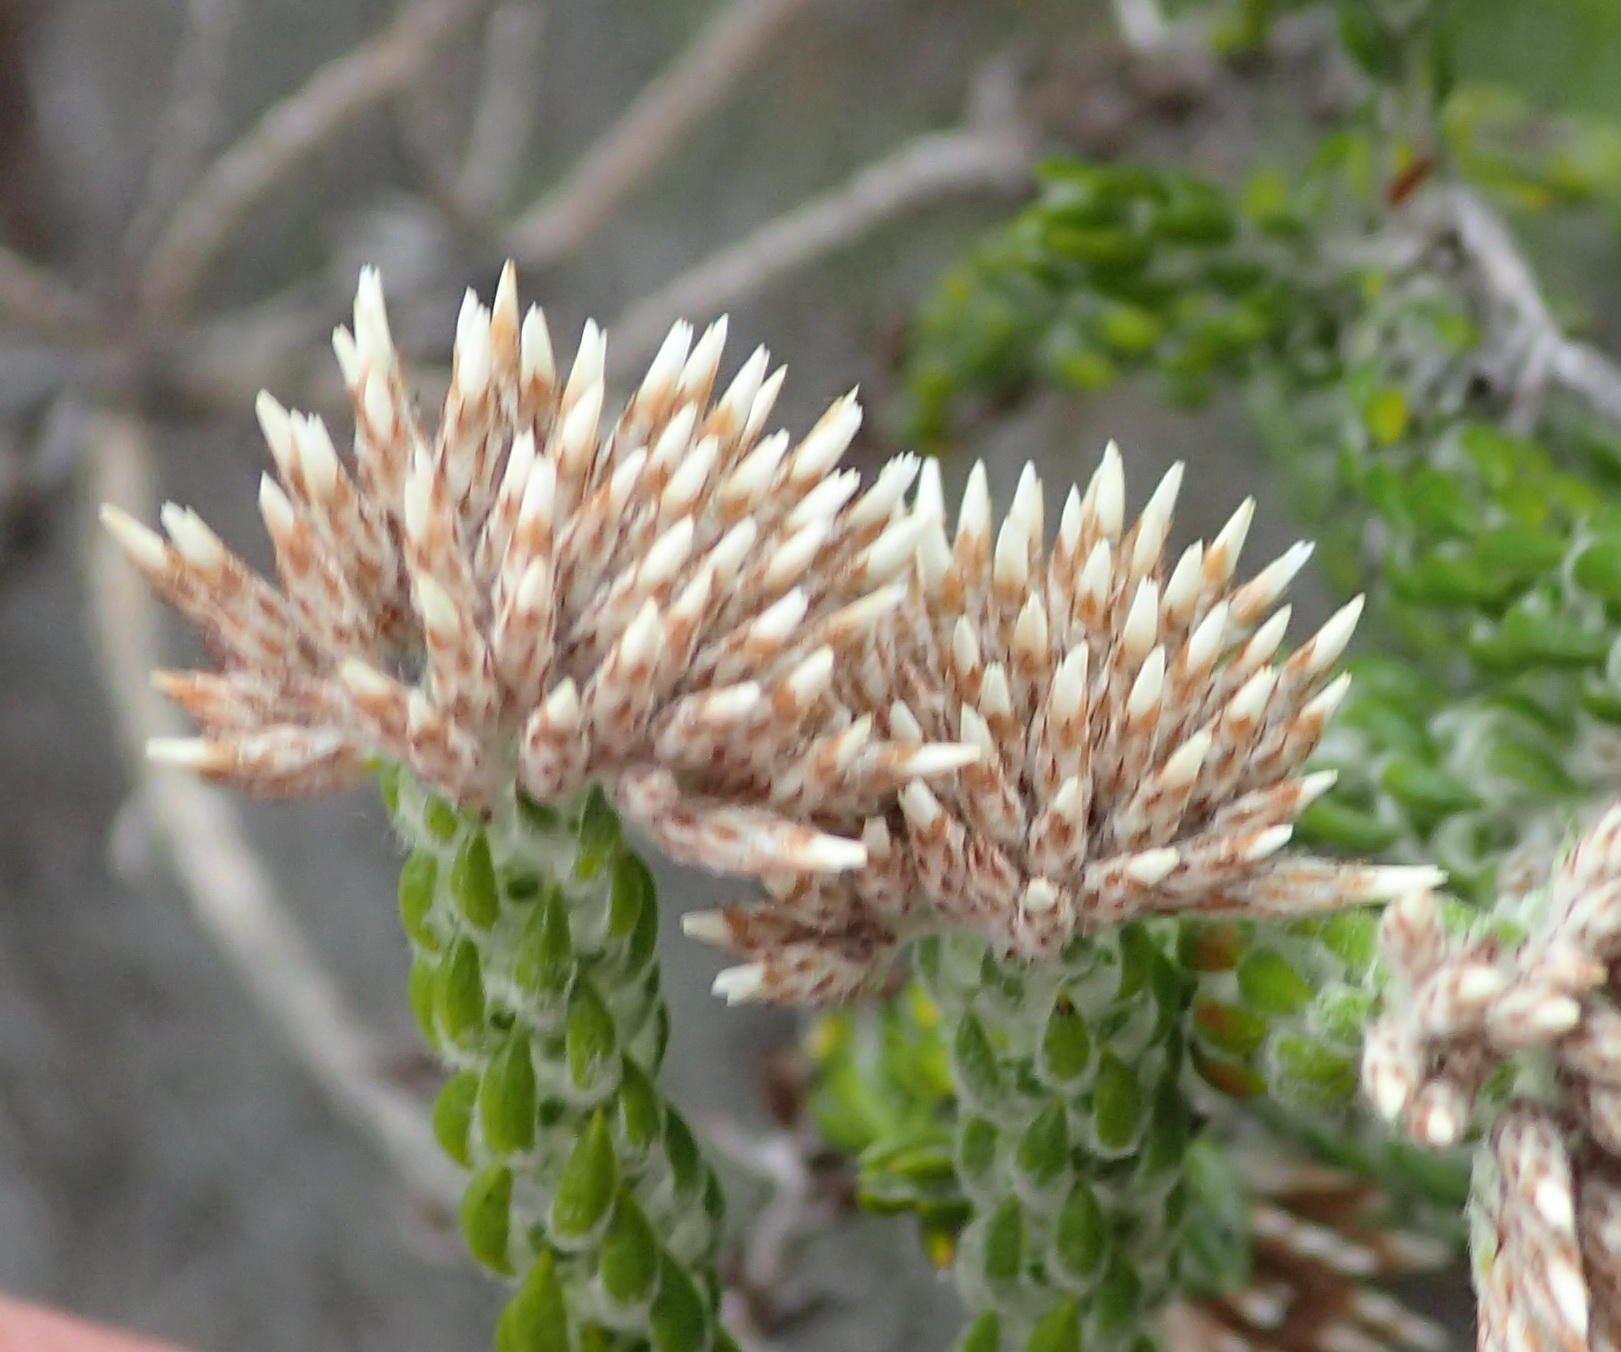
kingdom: Plantae
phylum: Tracheophyta
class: Magnoliopsida
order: Asterales
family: Asteraceae
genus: Metalasia
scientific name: Metalasia pungens
